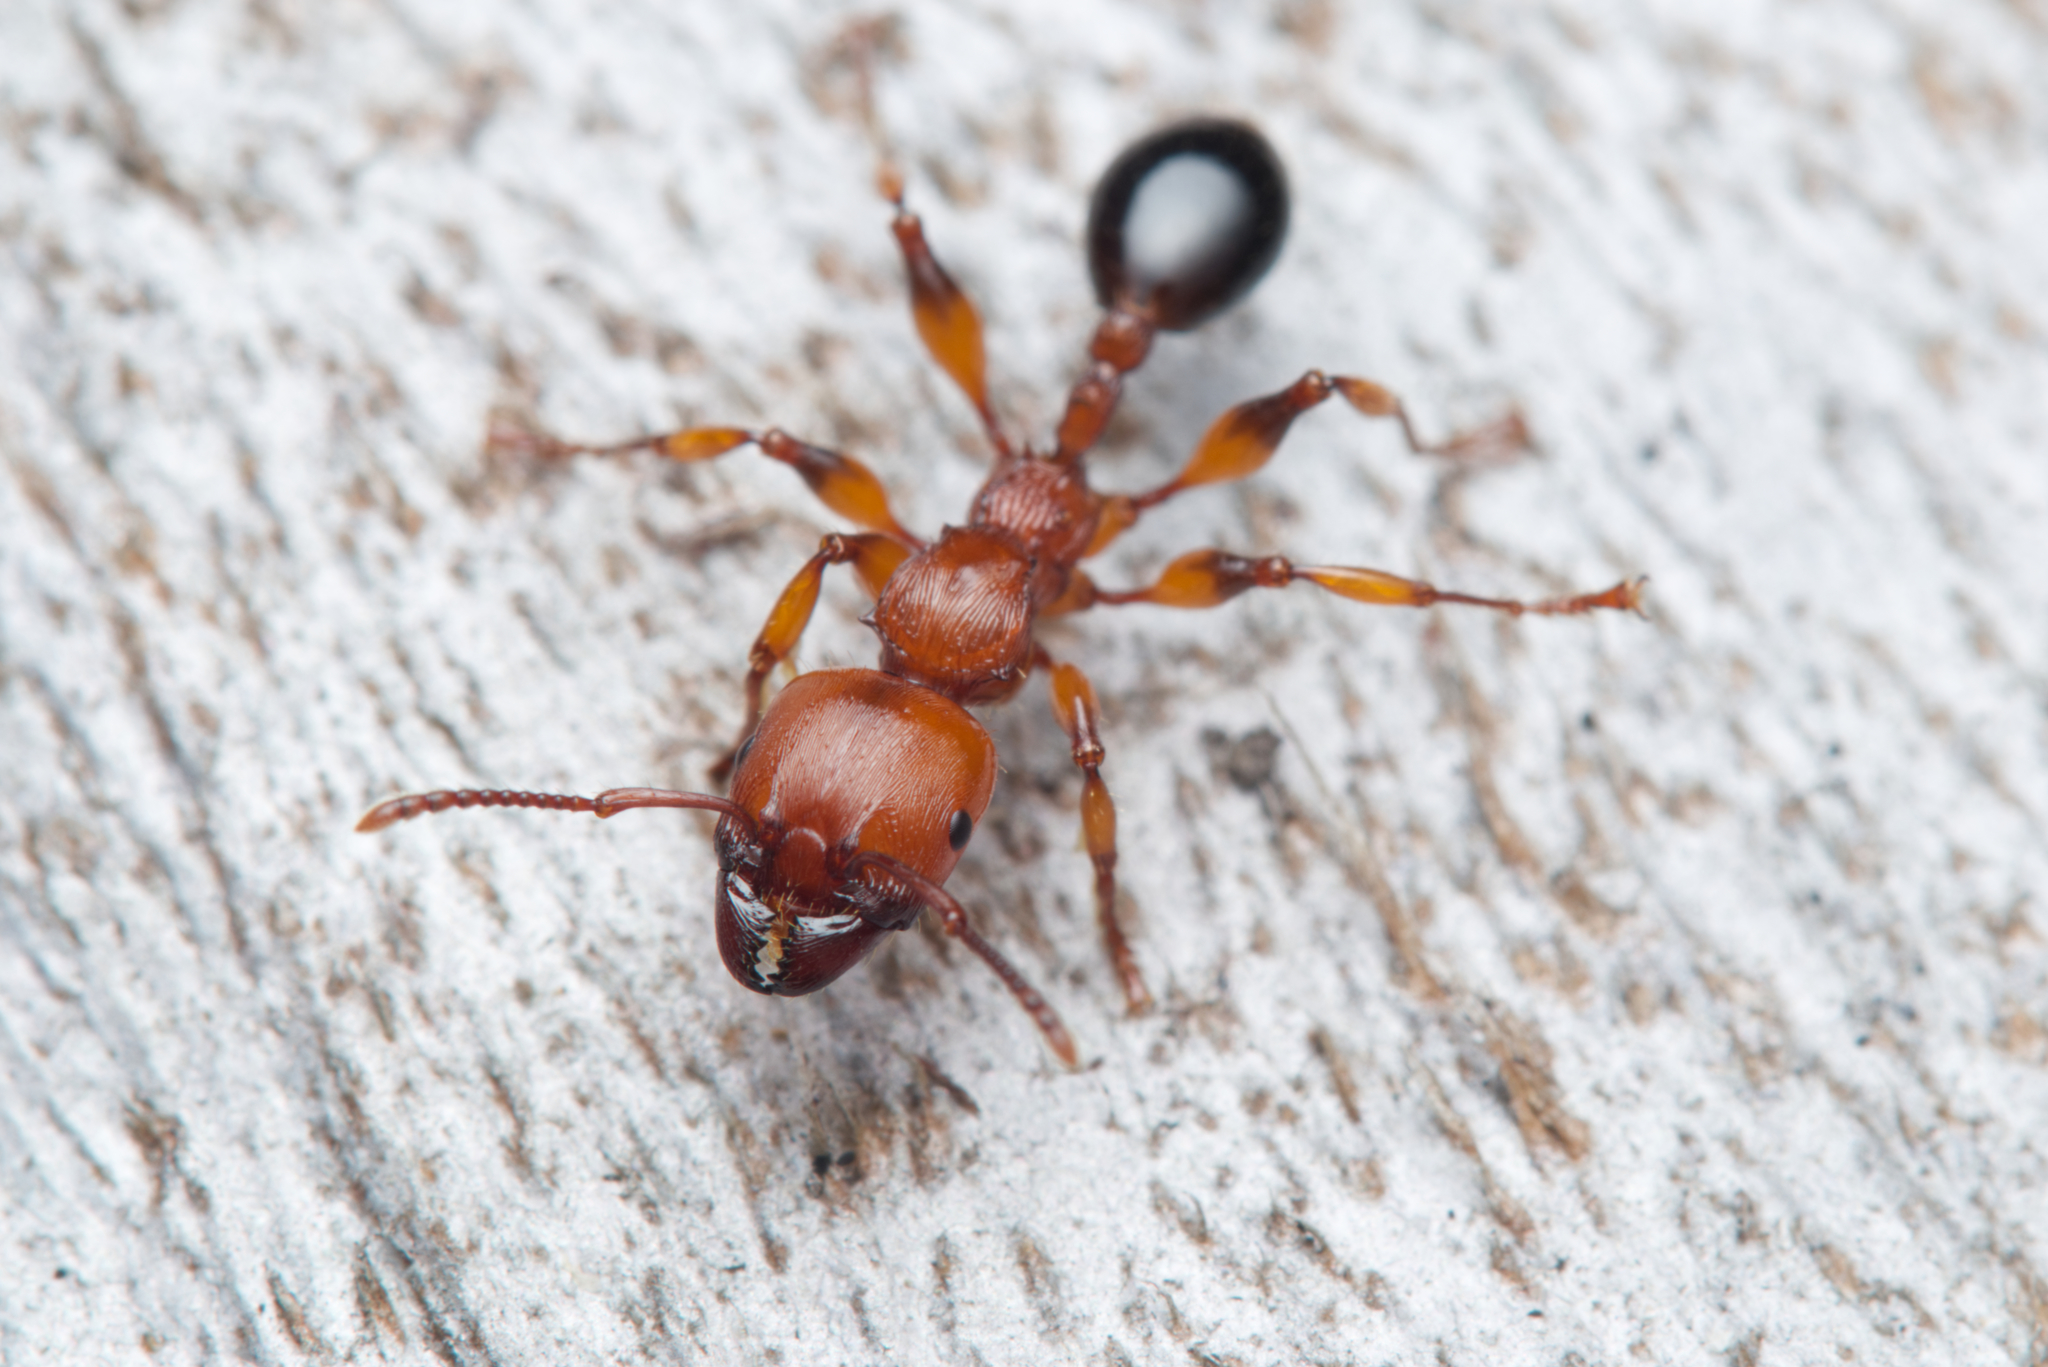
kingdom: Animalia
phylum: Arthropoda
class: Insecta
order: Hymenoptera
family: Formicidae
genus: Podomyrma
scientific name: Podomyrma gratiosa
